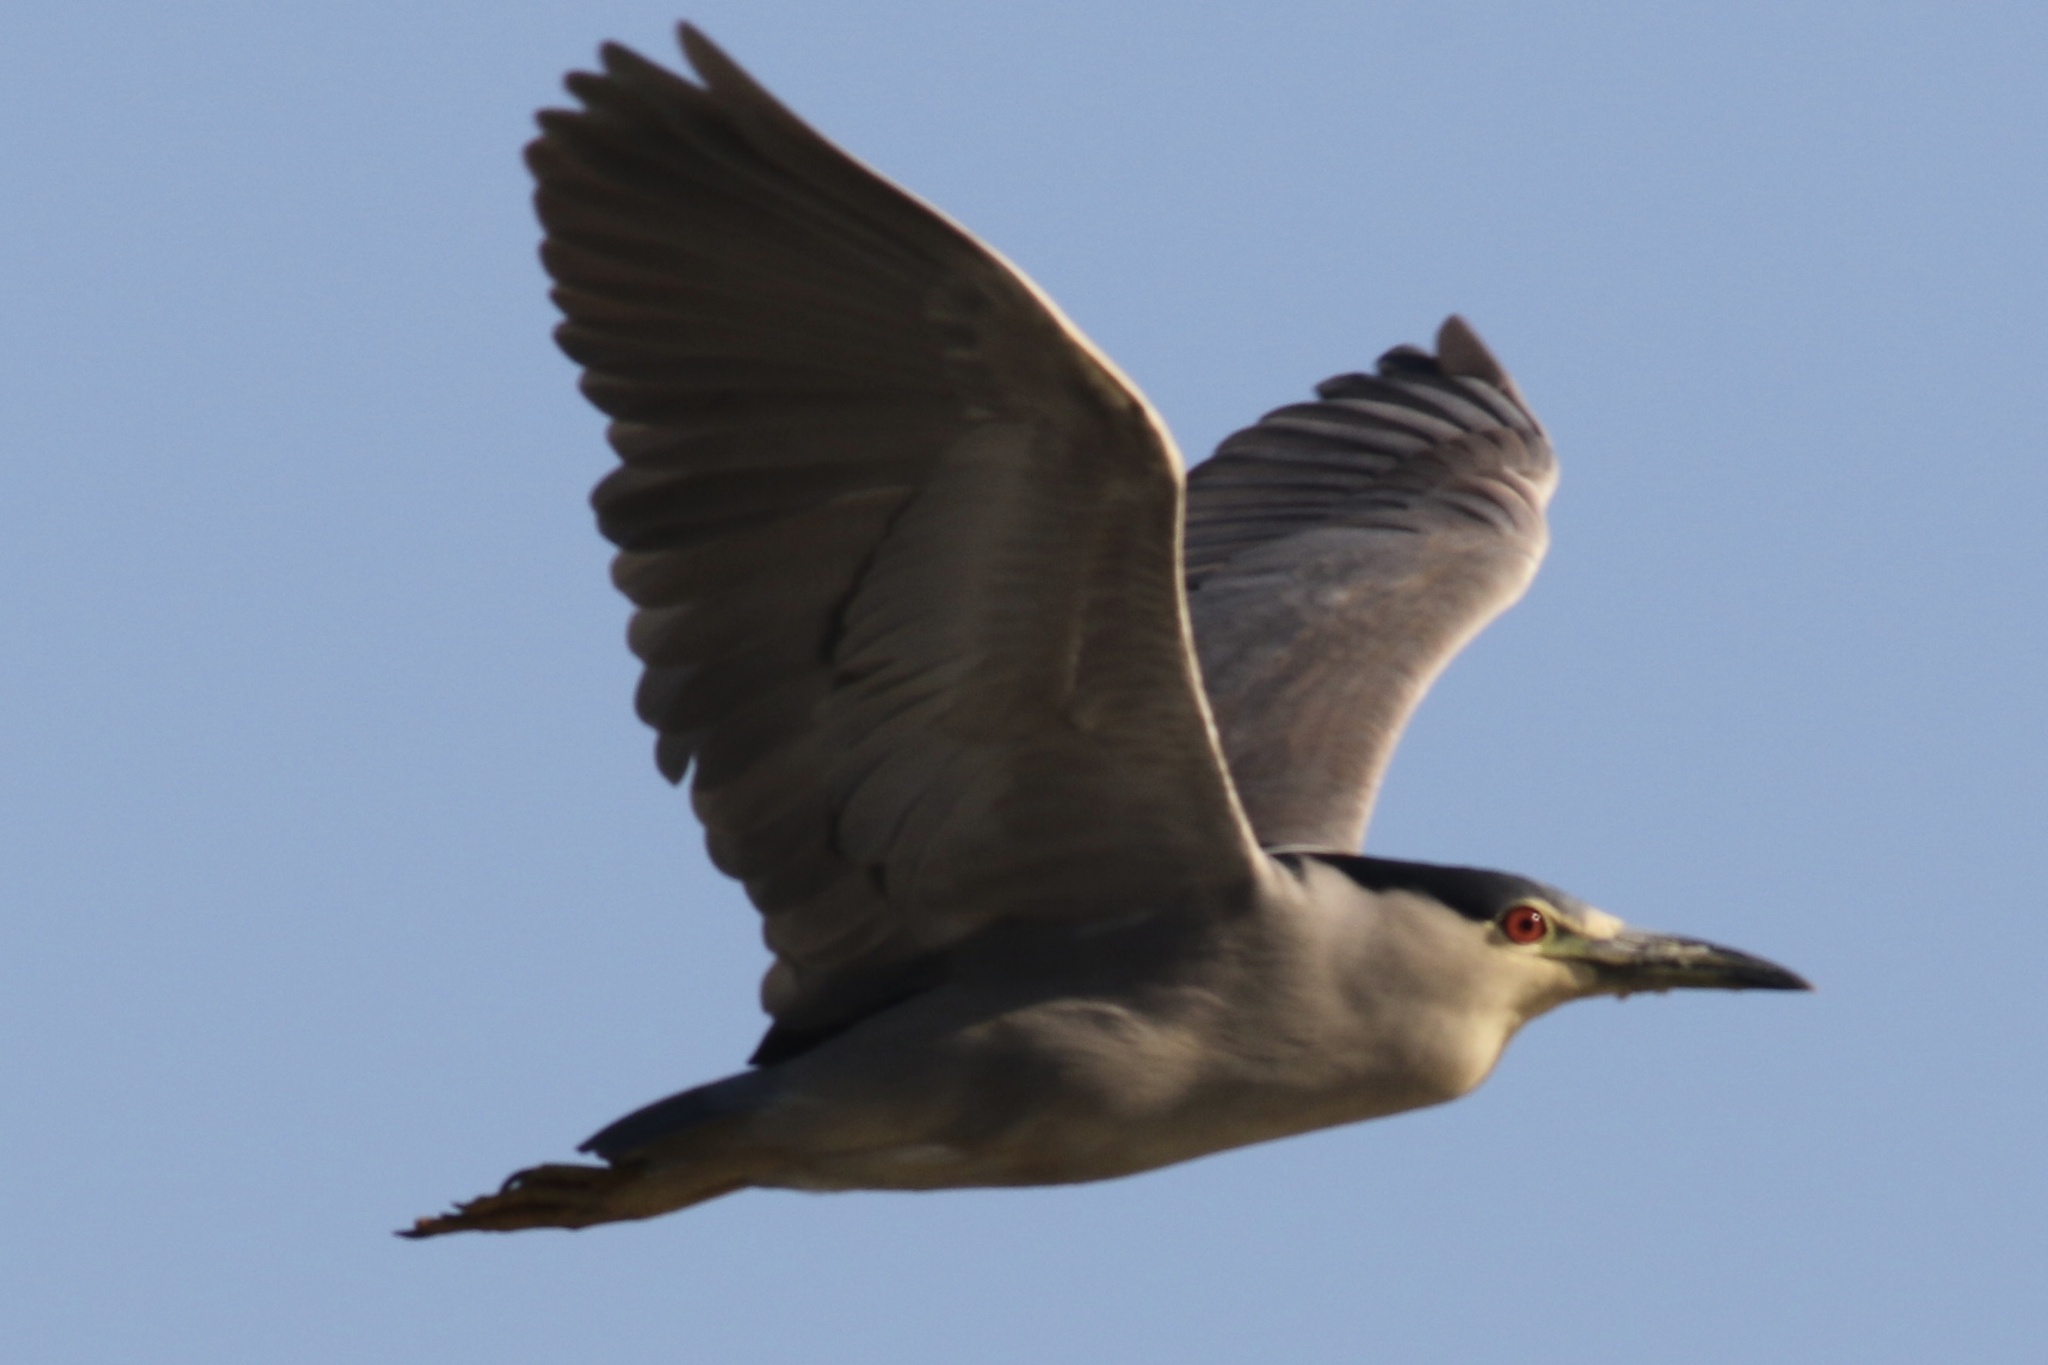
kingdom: Animalia
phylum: Chordata
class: Aves
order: Pelecaniformes
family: Ardeidae
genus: Nycticorax
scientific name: Nycticorax nycticorax
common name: Black-crowned night heron
